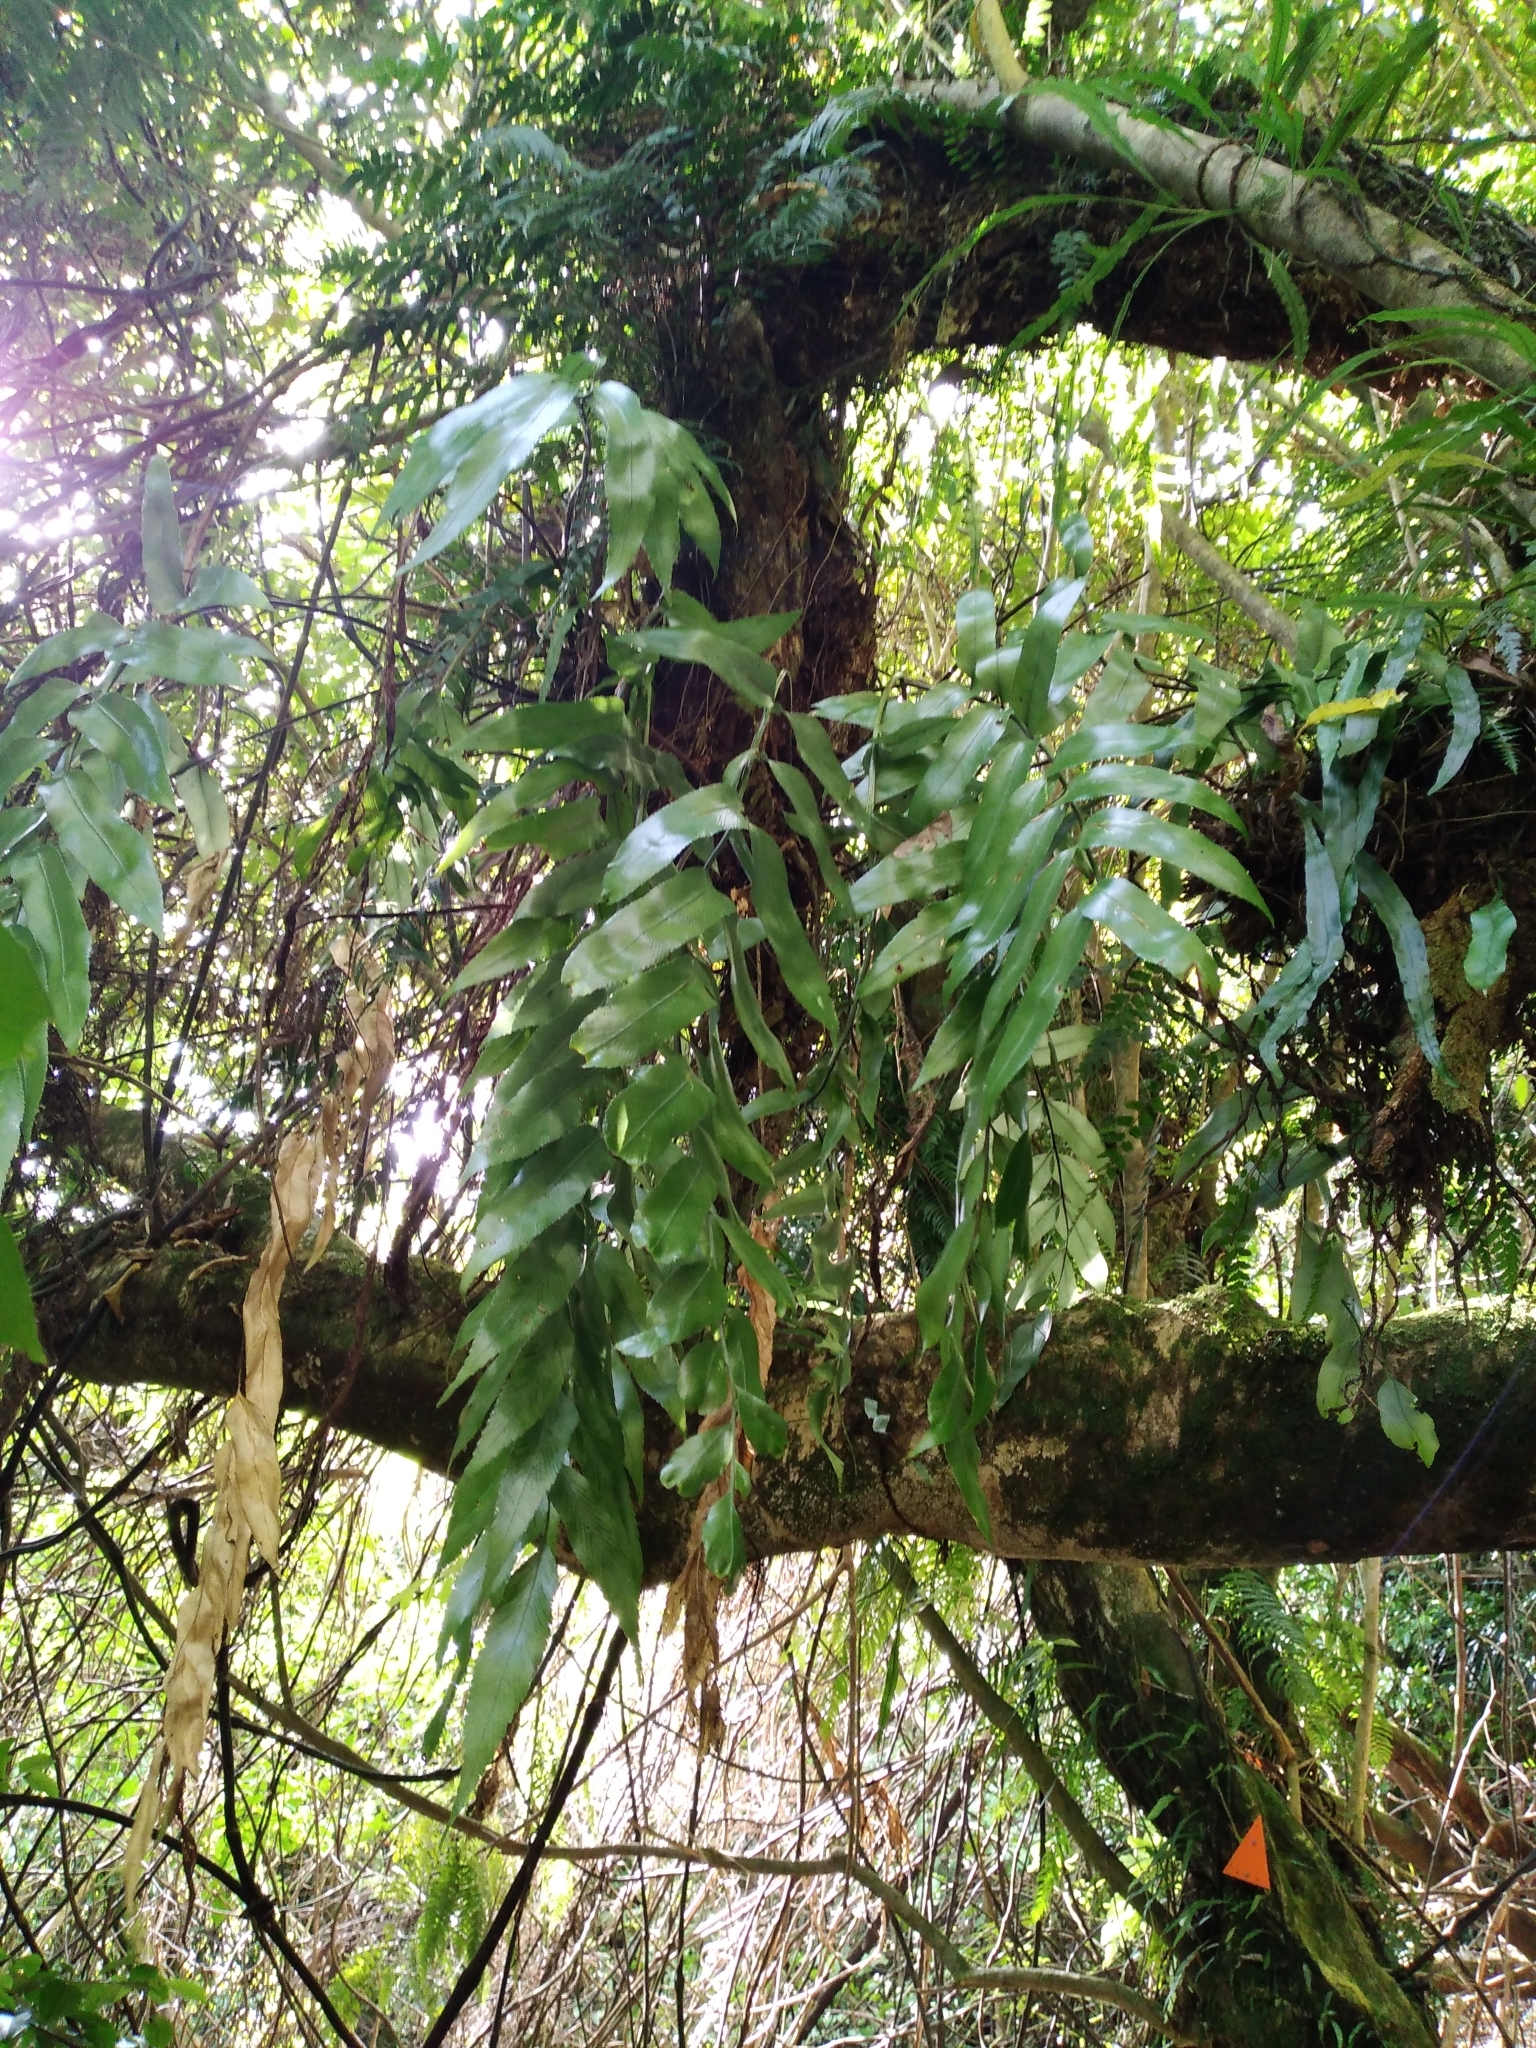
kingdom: Plantae
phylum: Tracheophyta
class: Polypodiopsida
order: Polypodiales
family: Aspleniaceae
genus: Asplenium
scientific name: Asplenium oblongifolium
